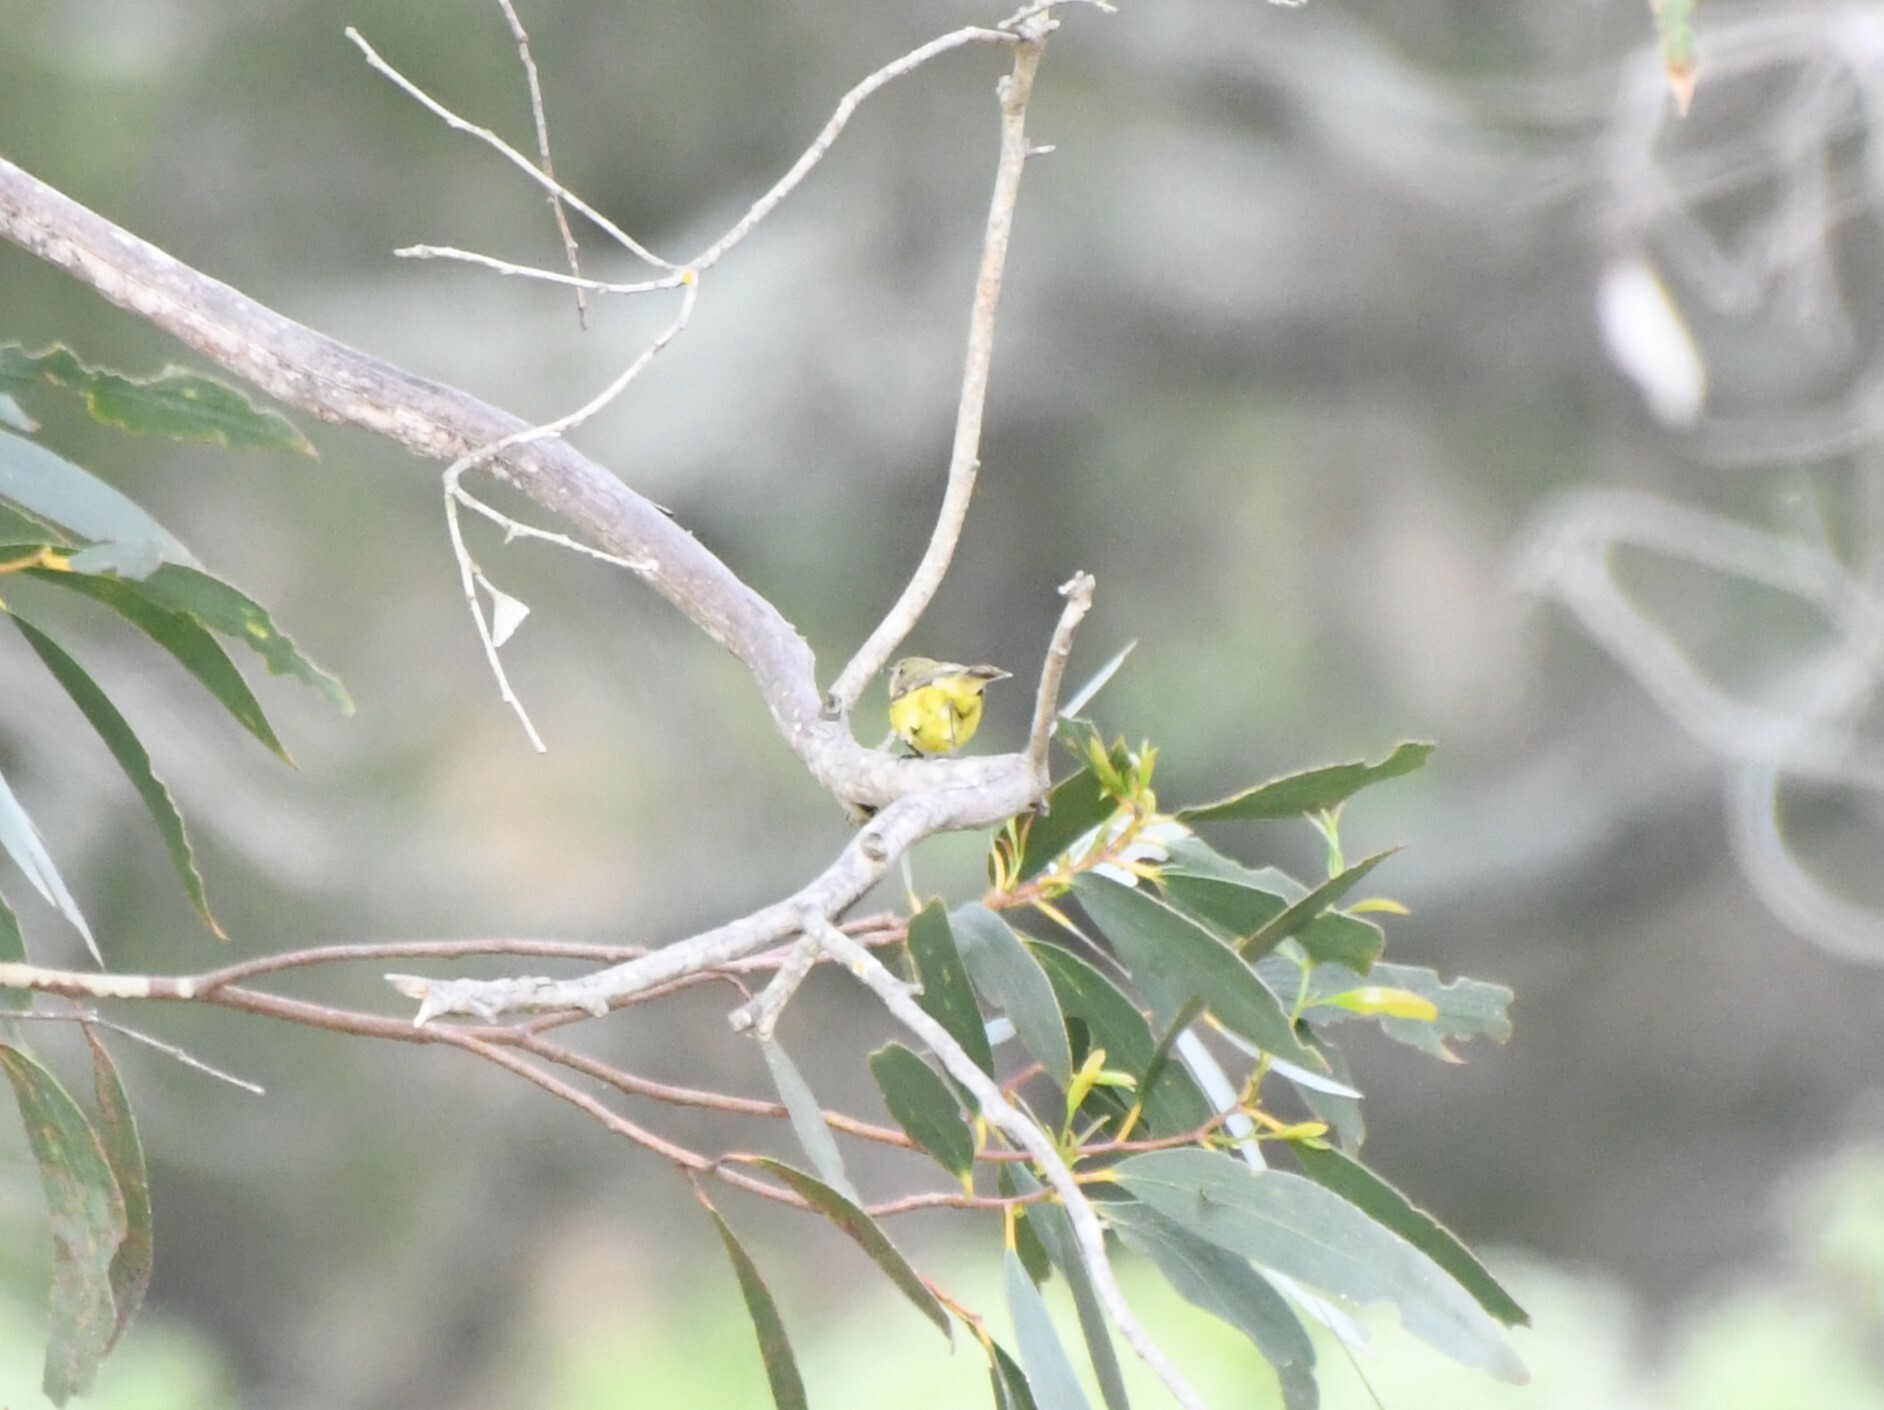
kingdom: Animalia
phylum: Chordata
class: Aves
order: Passeriformes
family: Acanthizidae
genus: Acanthiza
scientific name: Acanthiza nana
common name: Yellow thornbill
